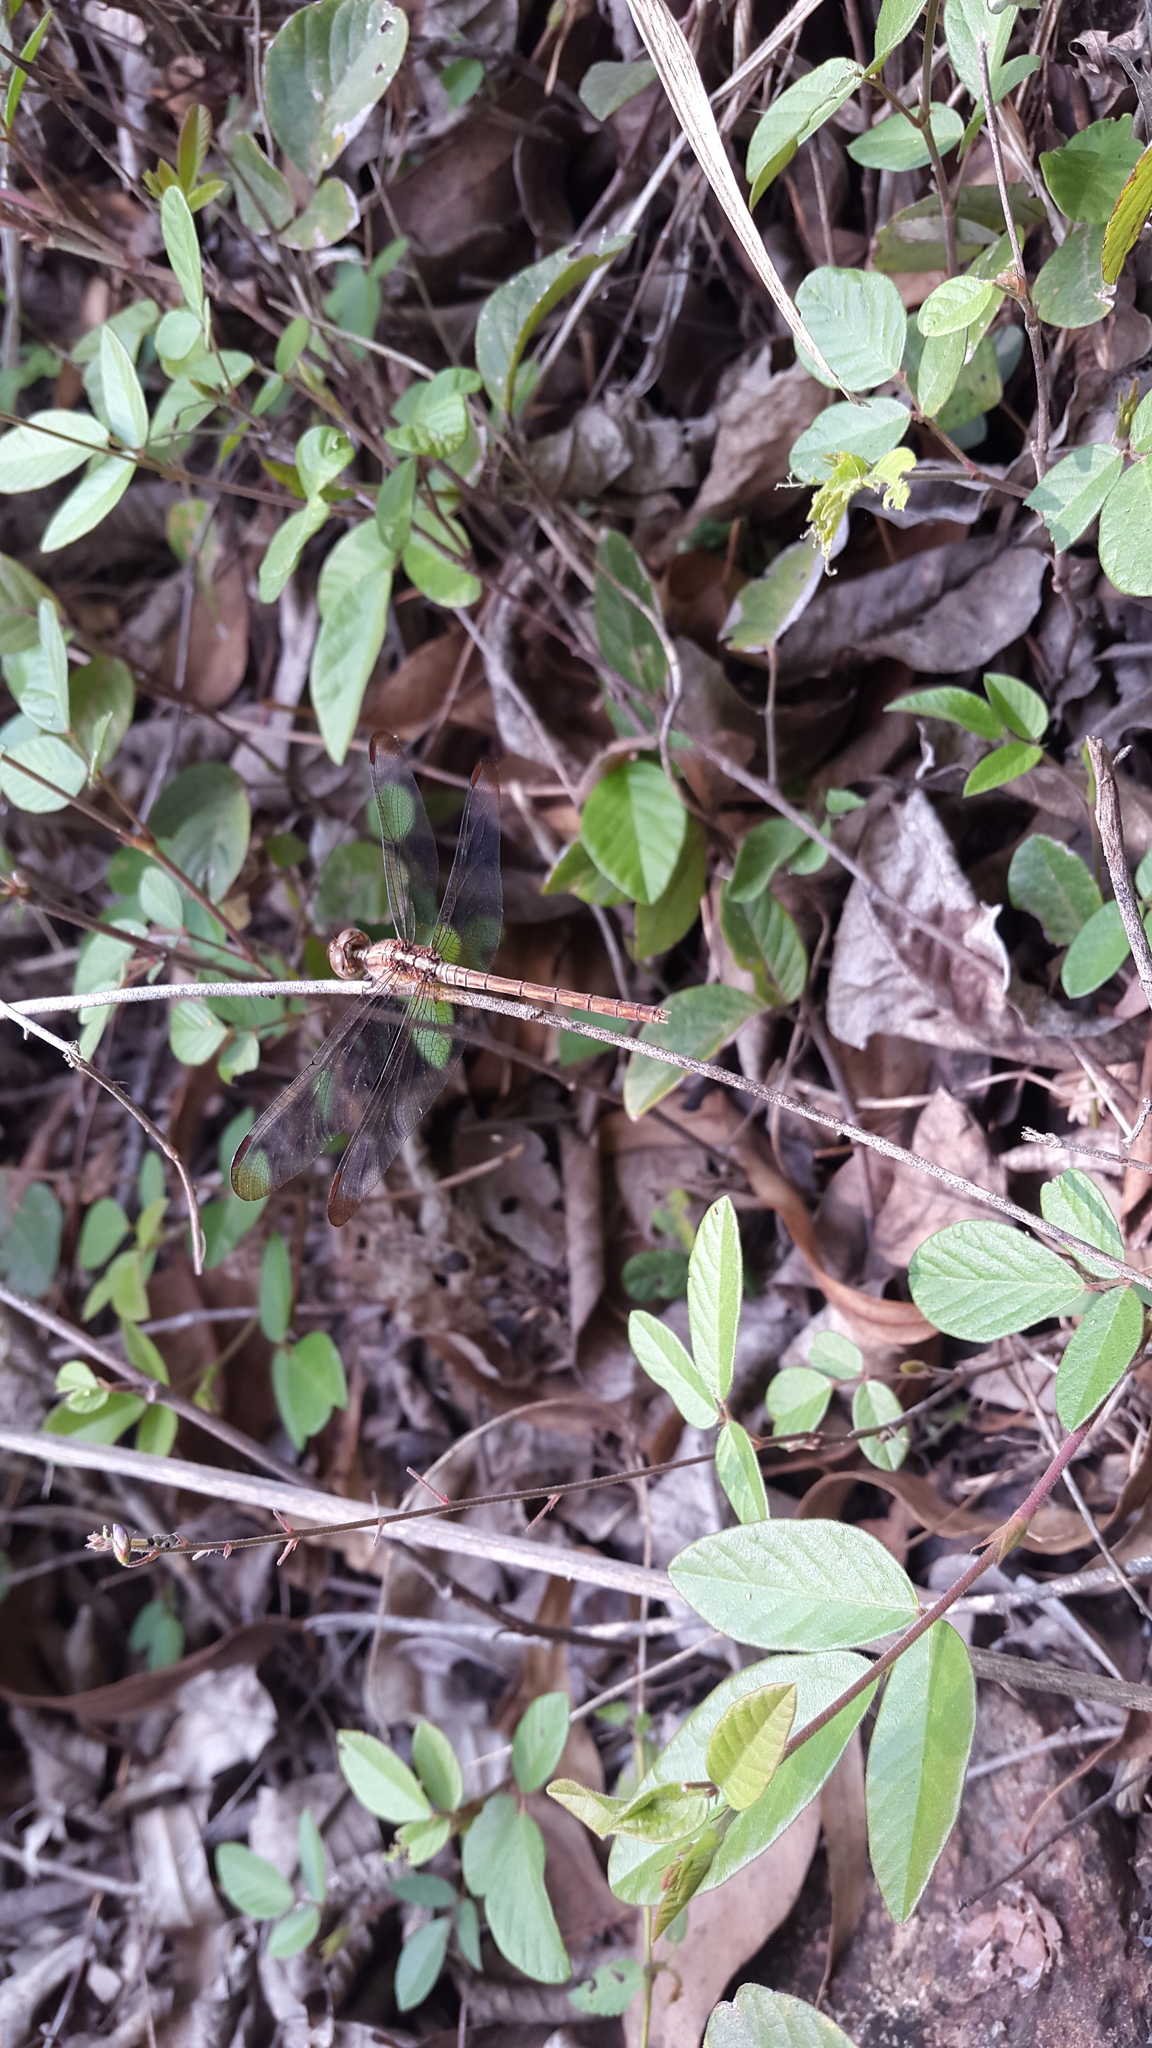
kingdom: Animalia
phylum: Arthropoda
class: Insecta
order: Odonata
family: Libellulidae
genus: Erythrodiplax
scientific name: Erythrodiplax funerea
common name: Black-winged dragonlet
